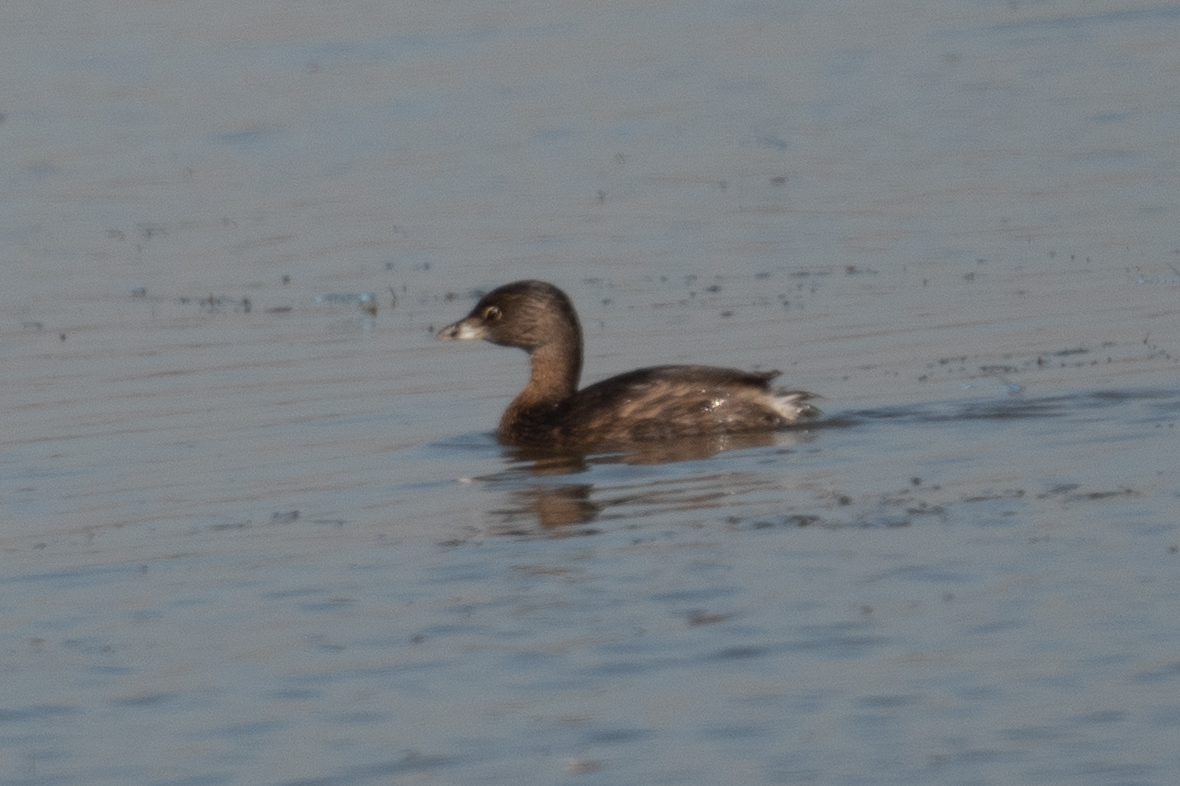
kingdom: Animalia
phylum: Chordata
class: Aves
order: Podicipediformes
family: Podicipedidae
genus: Podilymbus
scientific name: Podilymbus podiceps
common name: Pied-billed grebe
